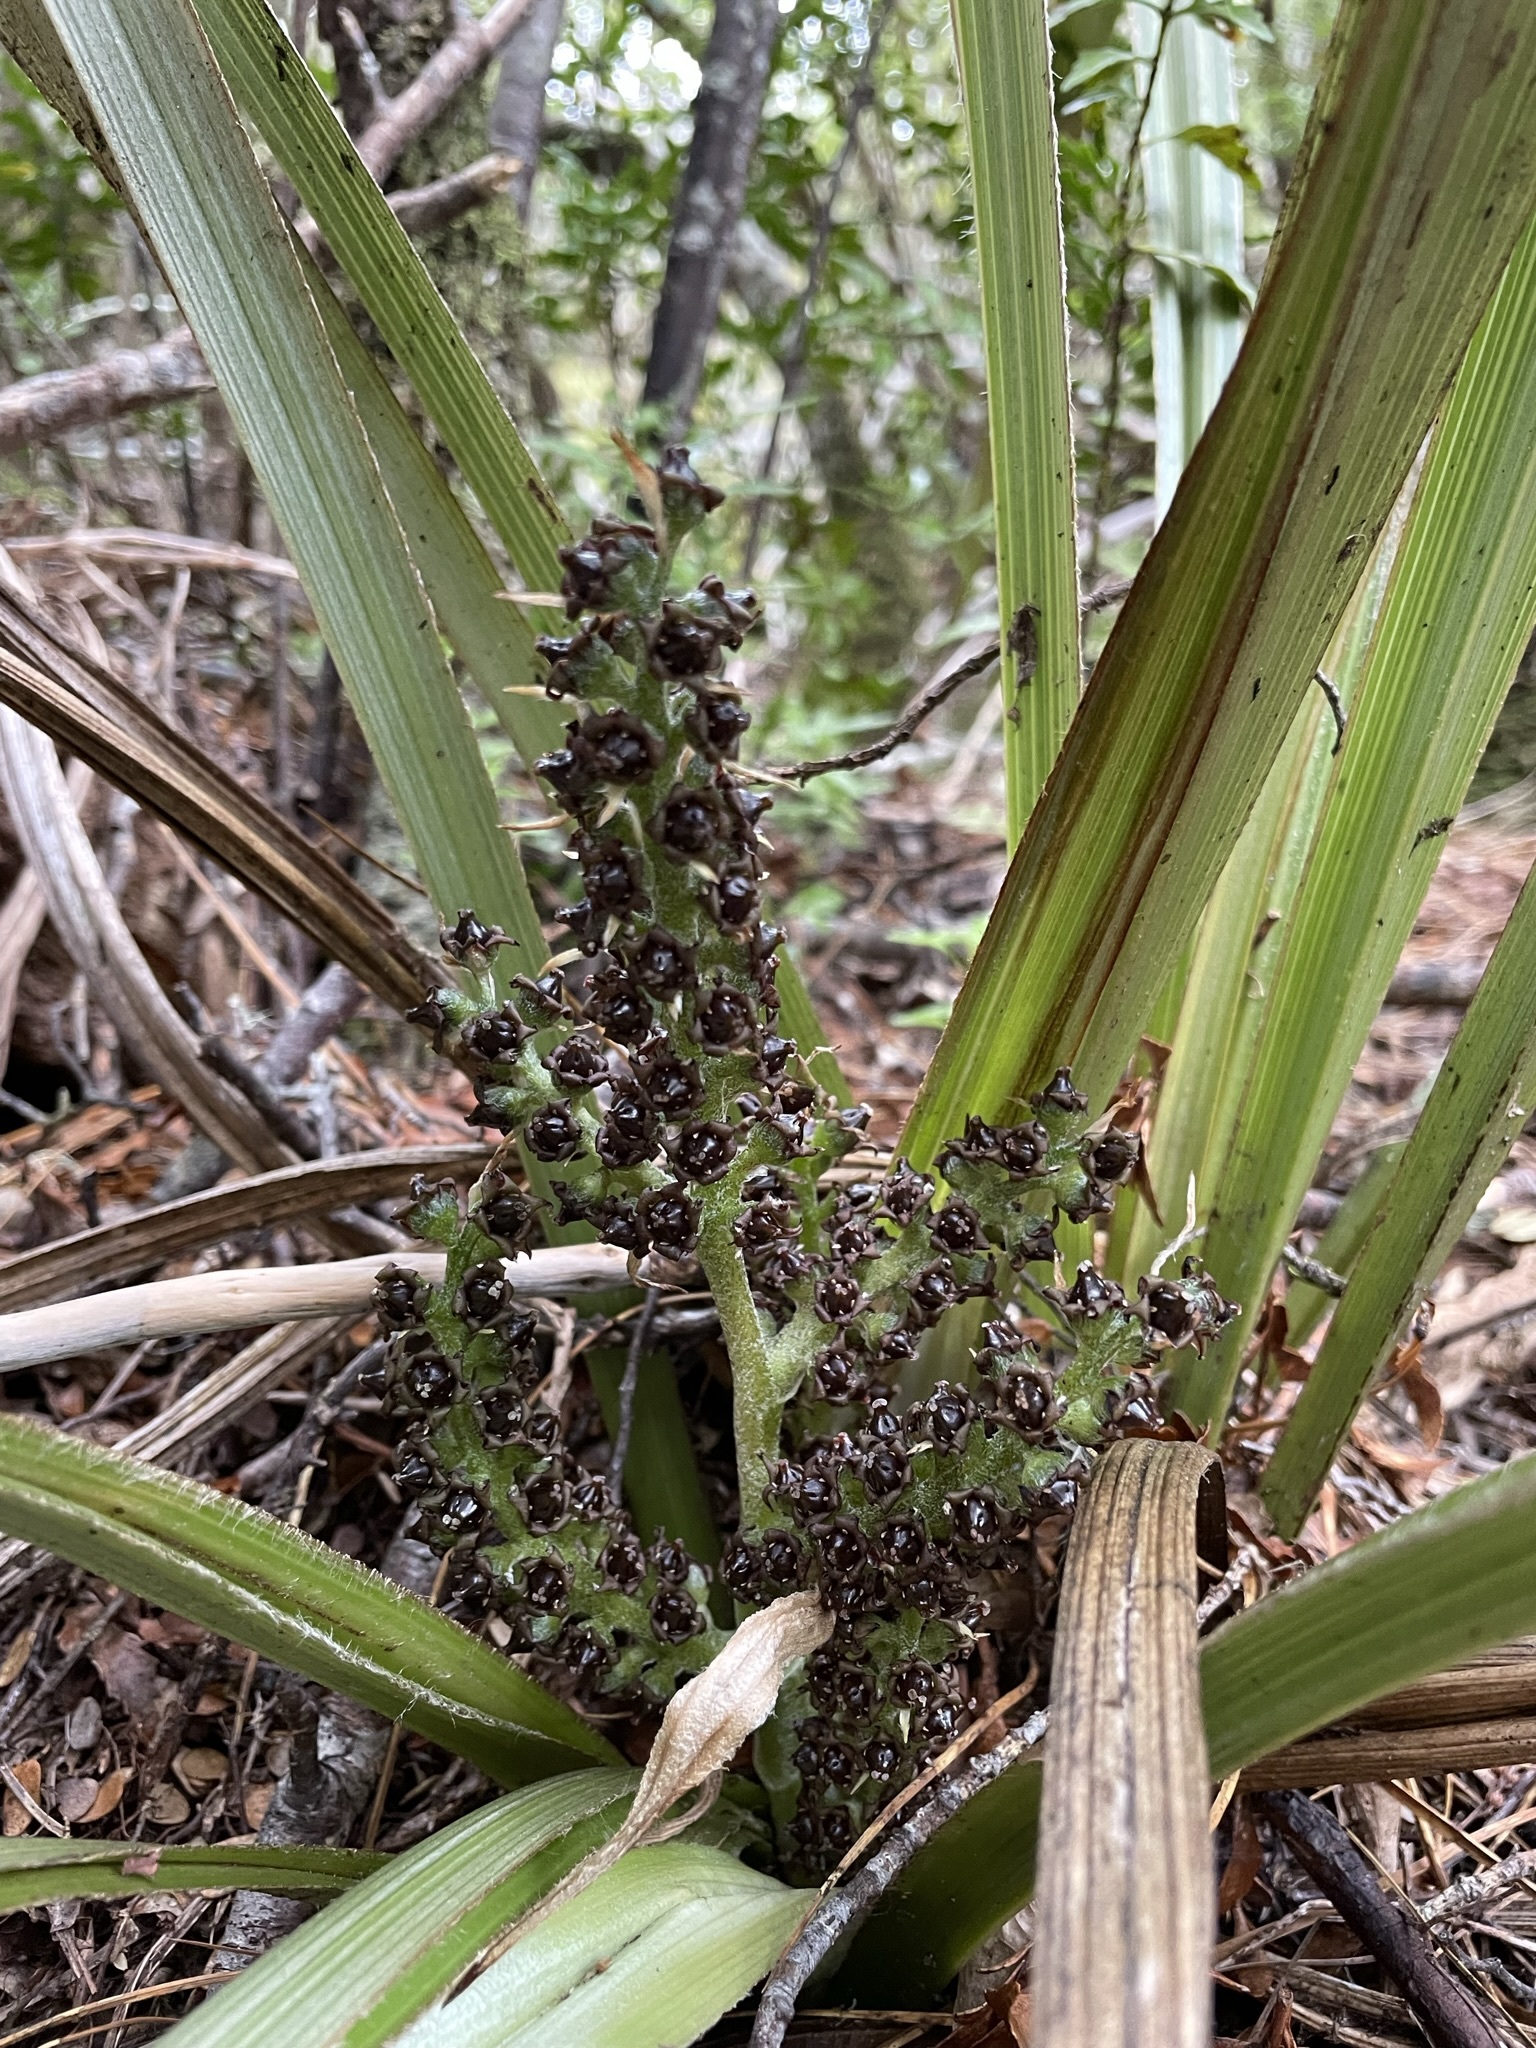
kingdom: Plantae
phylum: Tracheophyta
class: Liliopsida
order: Asparagales
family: Asteliaceae
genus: Astelia
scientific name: Astelia fragrans
